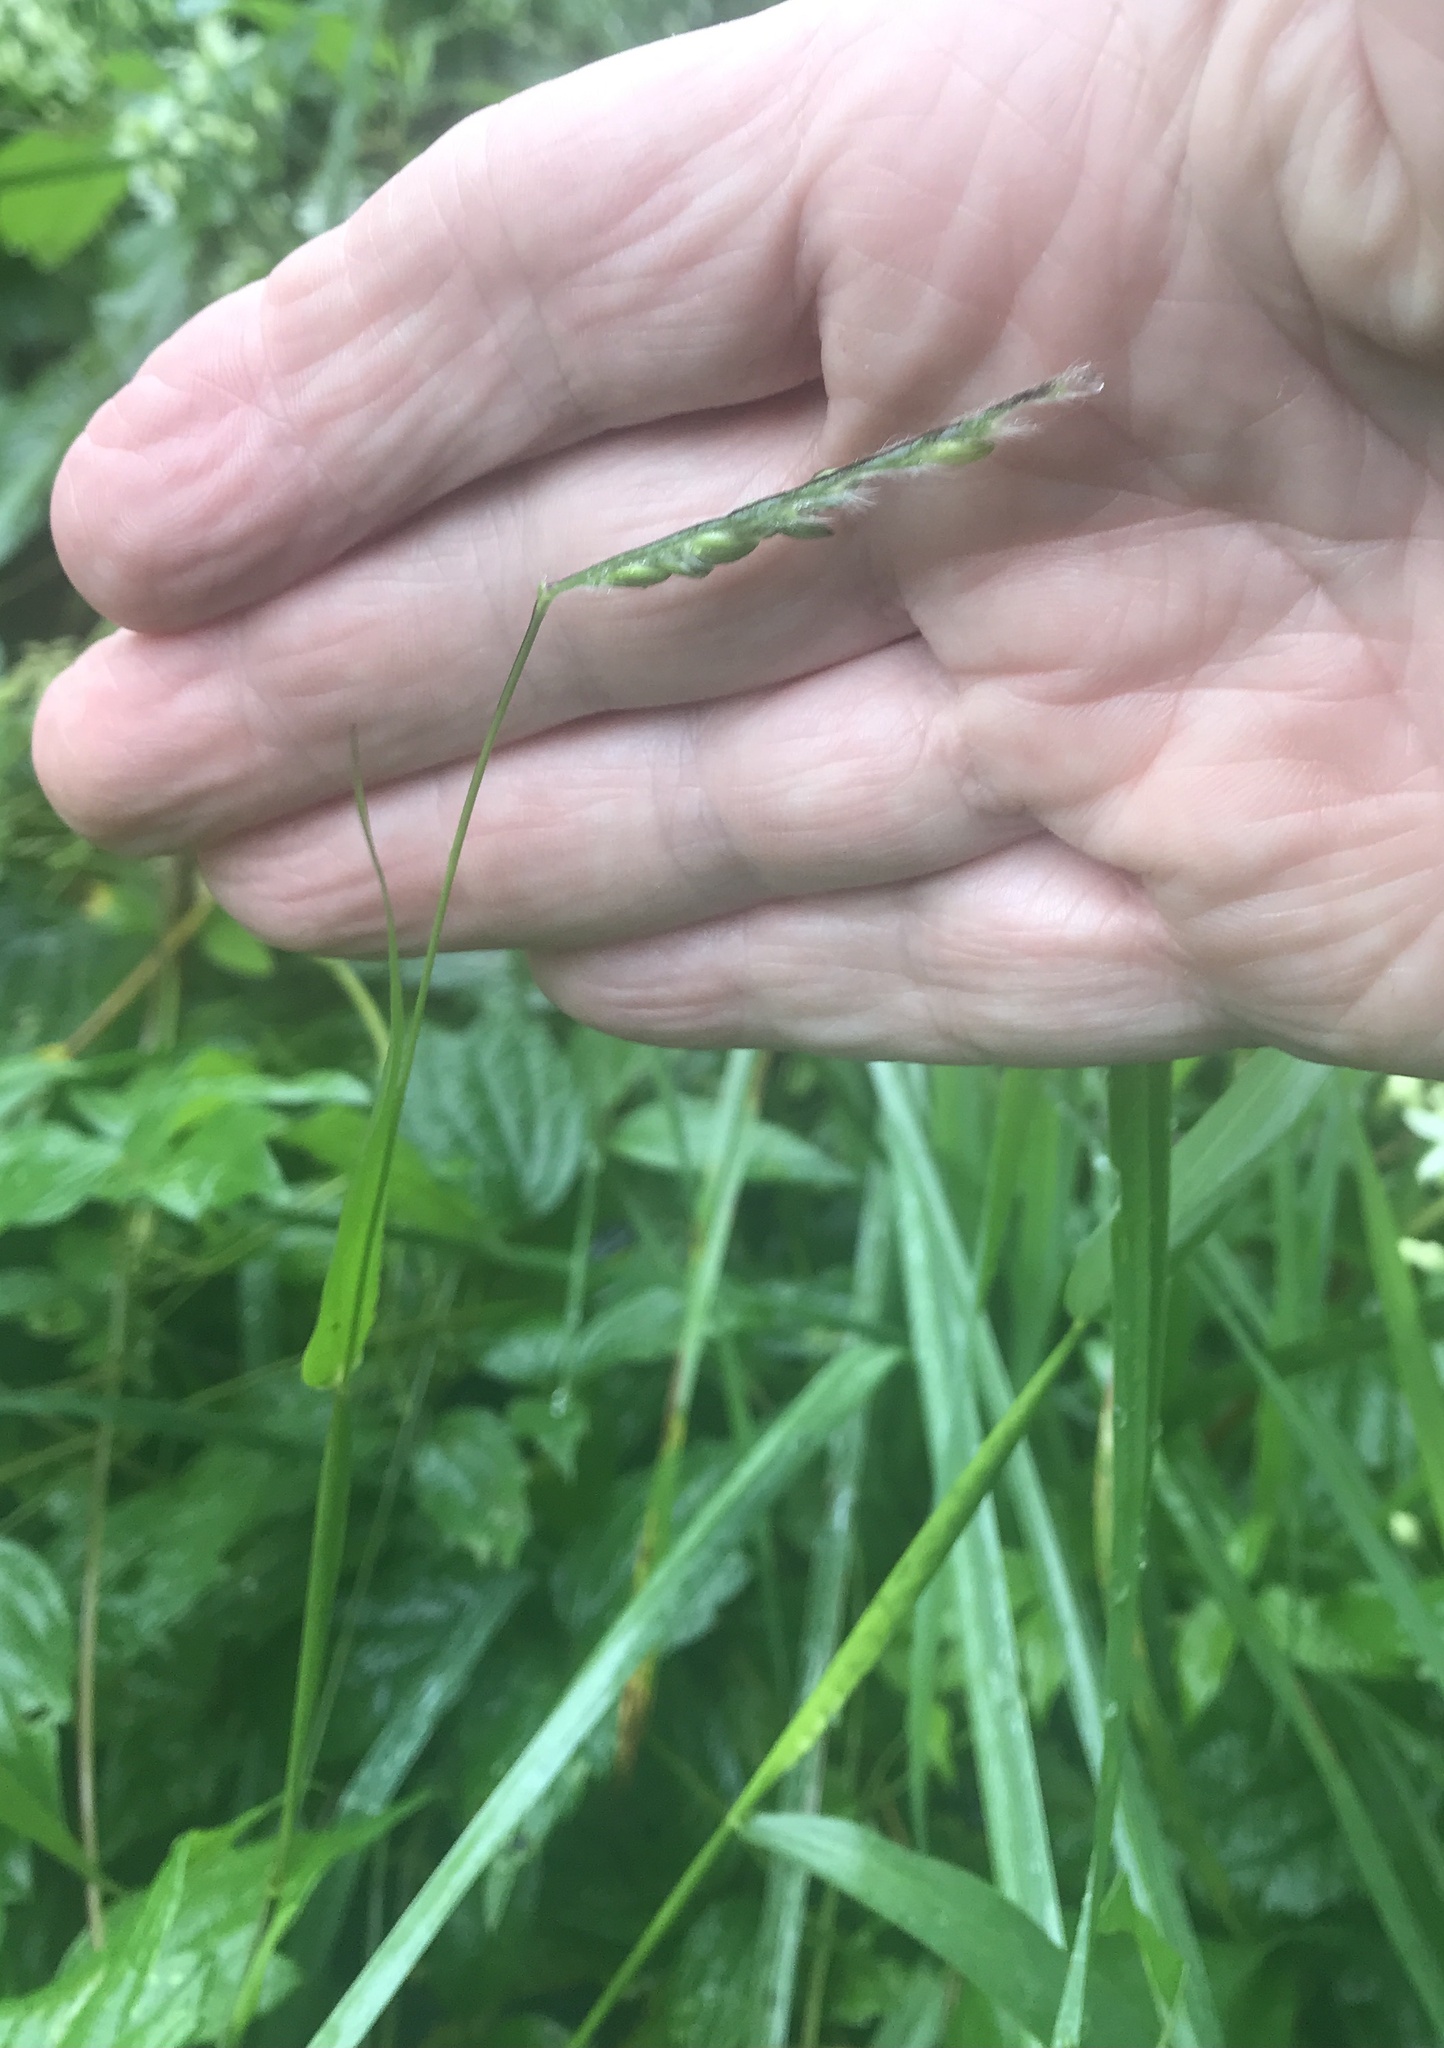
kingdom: Plantae
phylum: Tracheophyta
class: Liliopsida
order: Poales
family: Poaceae
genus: Eriochloa
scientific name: Eriochloa villosa
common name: Hairy cupgrass
